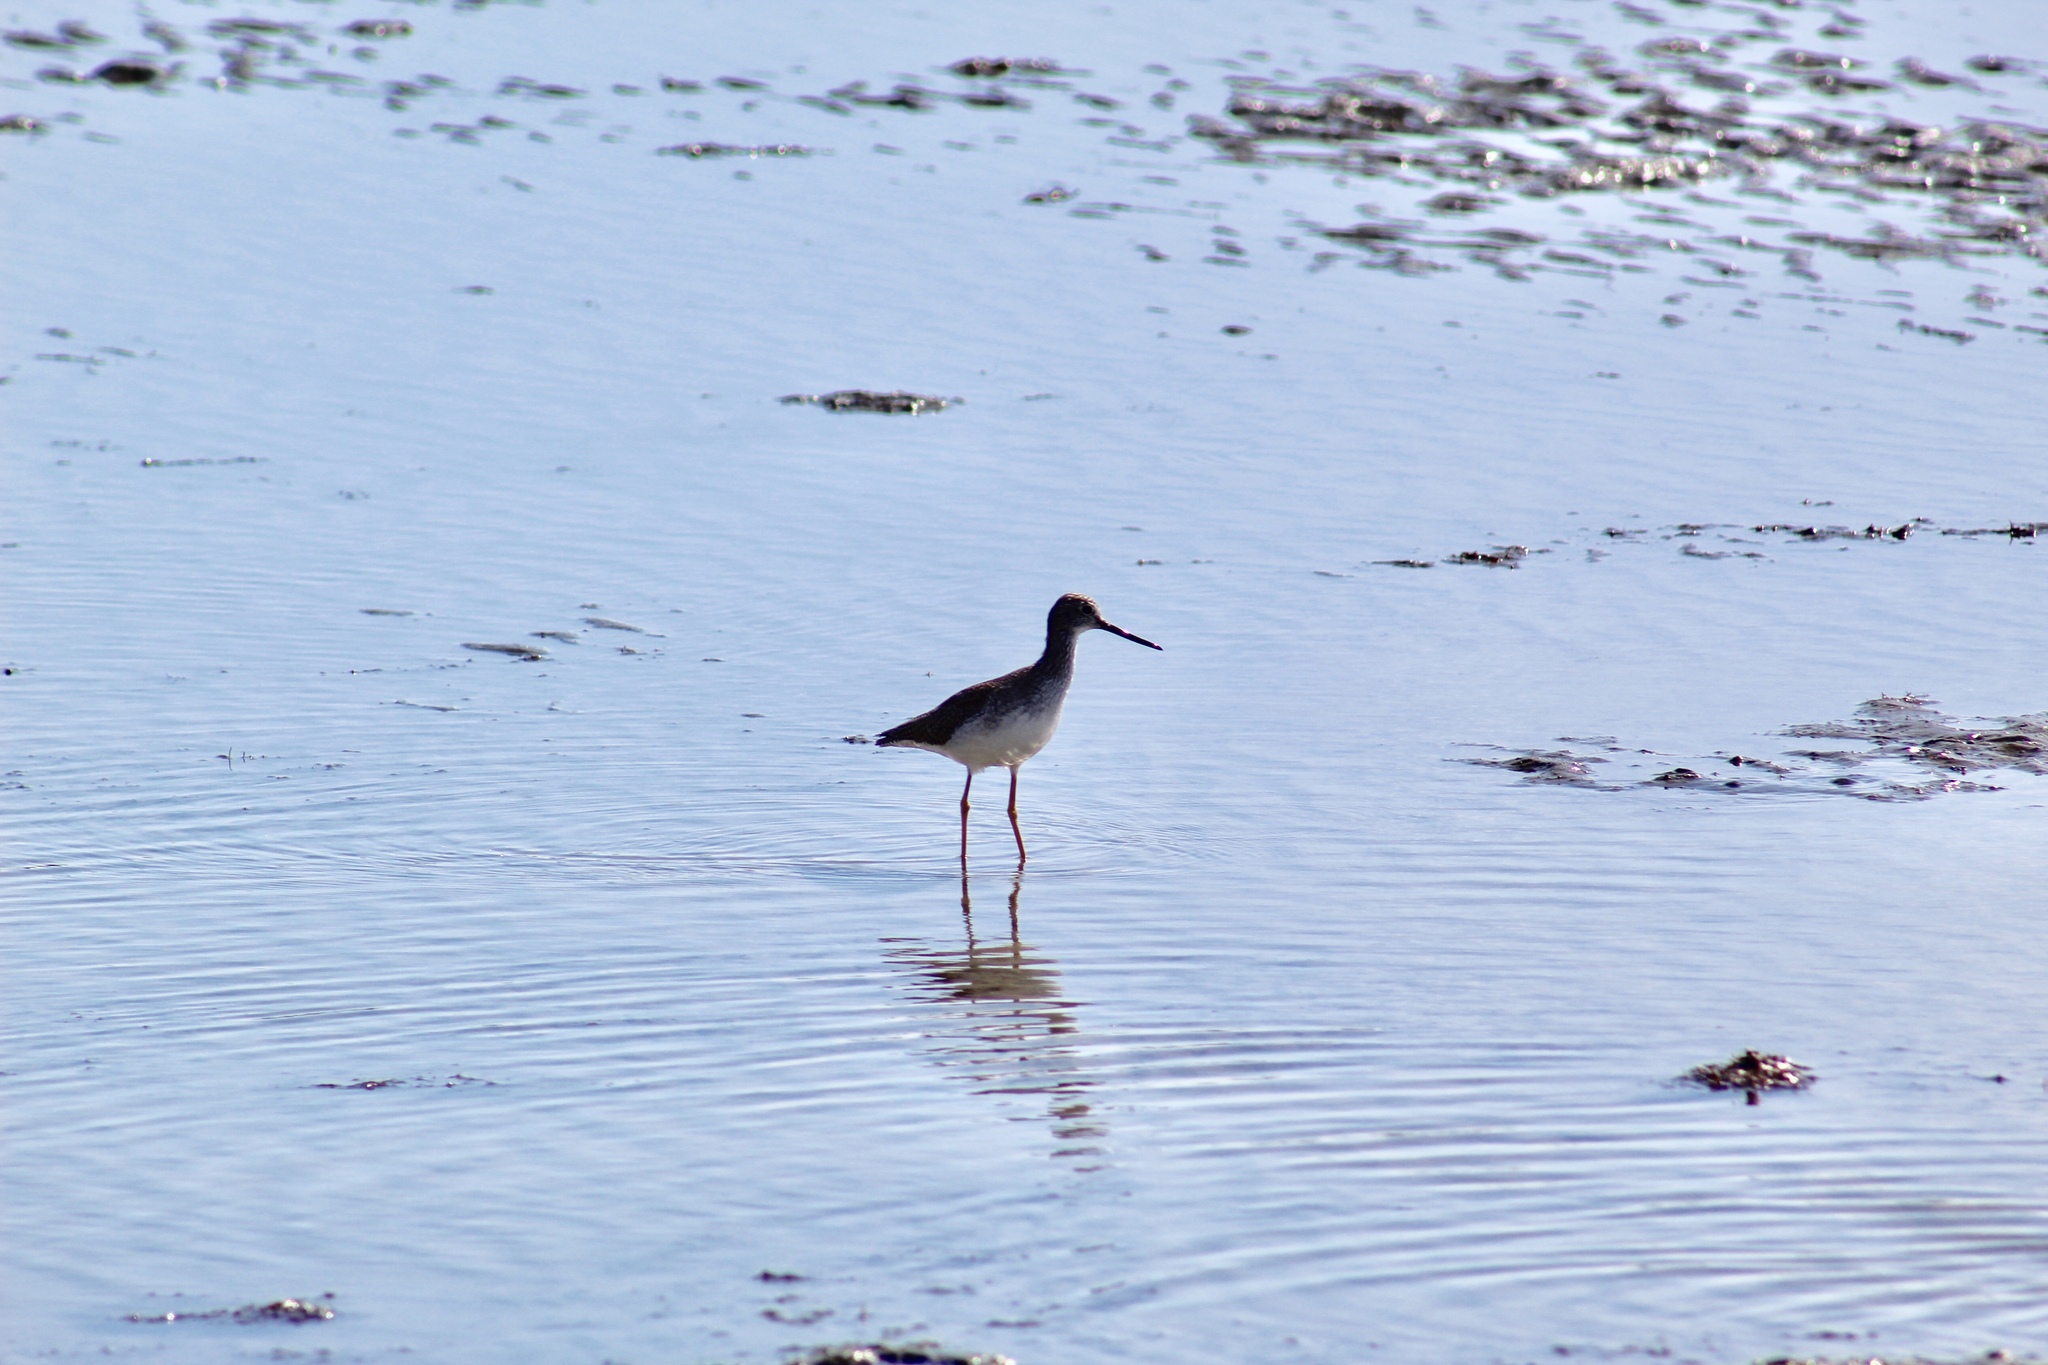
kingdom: Animalia
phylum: Chordata
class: Aves
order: Charadriiformes
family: Scolopacidae
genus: Tringa
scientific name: Tringa melanoleuca
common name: Greater yellowlegs
